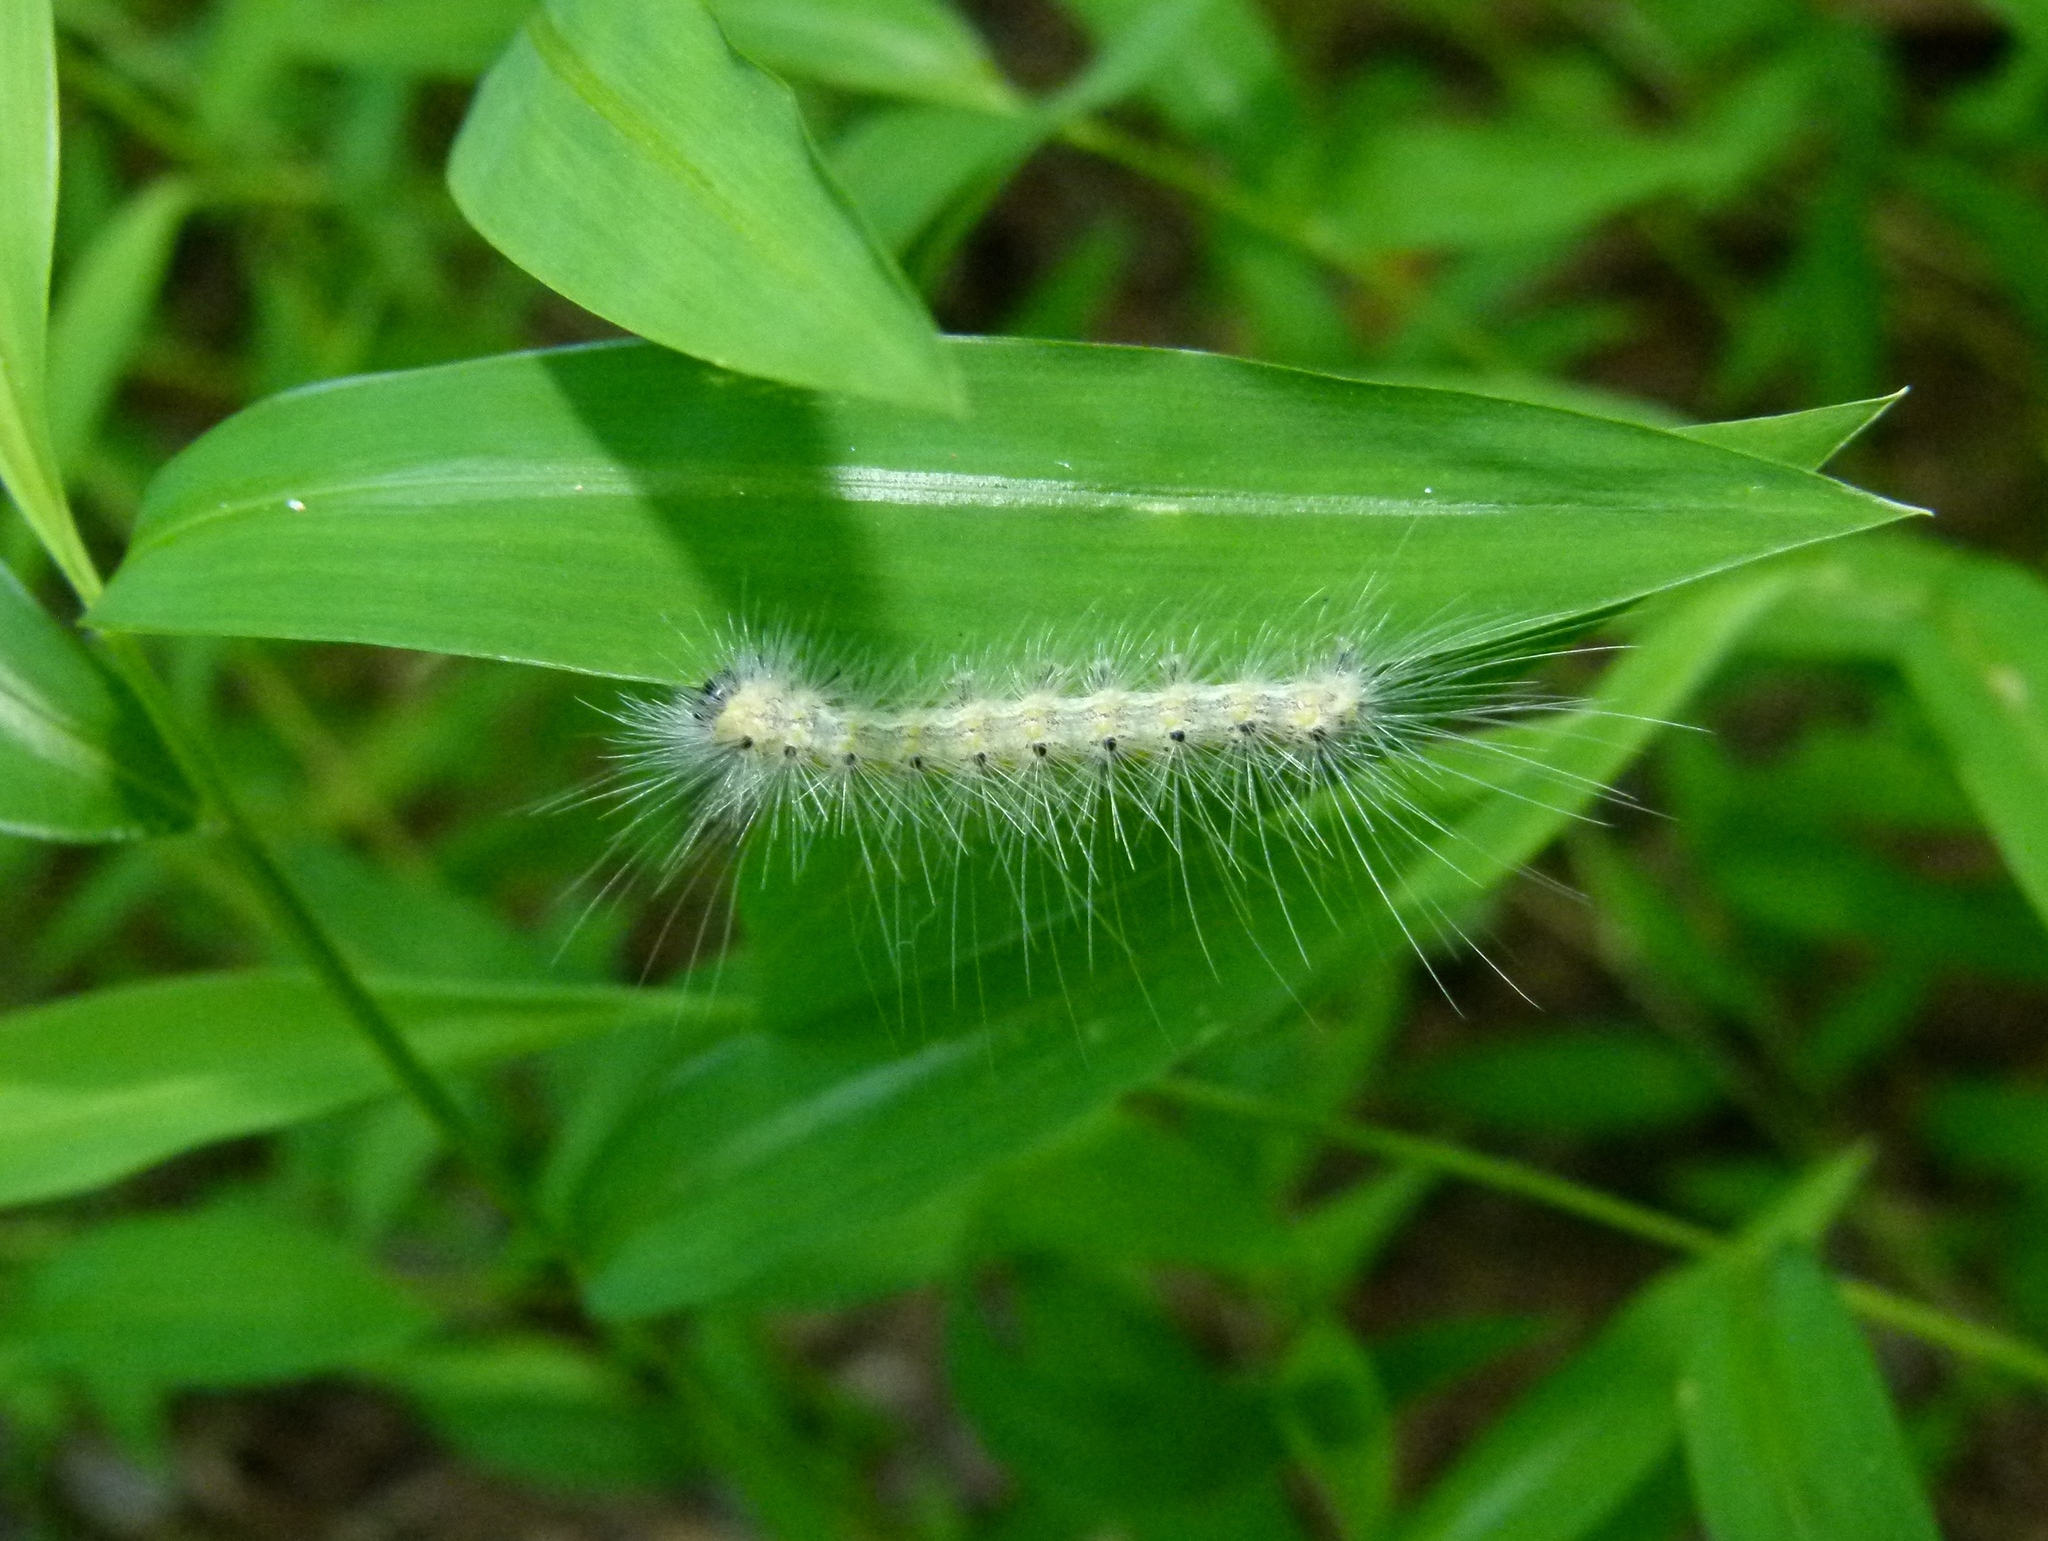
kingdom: Animalia
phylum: Arthropoda
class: Insecta
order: Lepidoptera
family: Erebidae
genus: Hyphantria
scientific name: Hyphantria cunea
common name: American white moth
